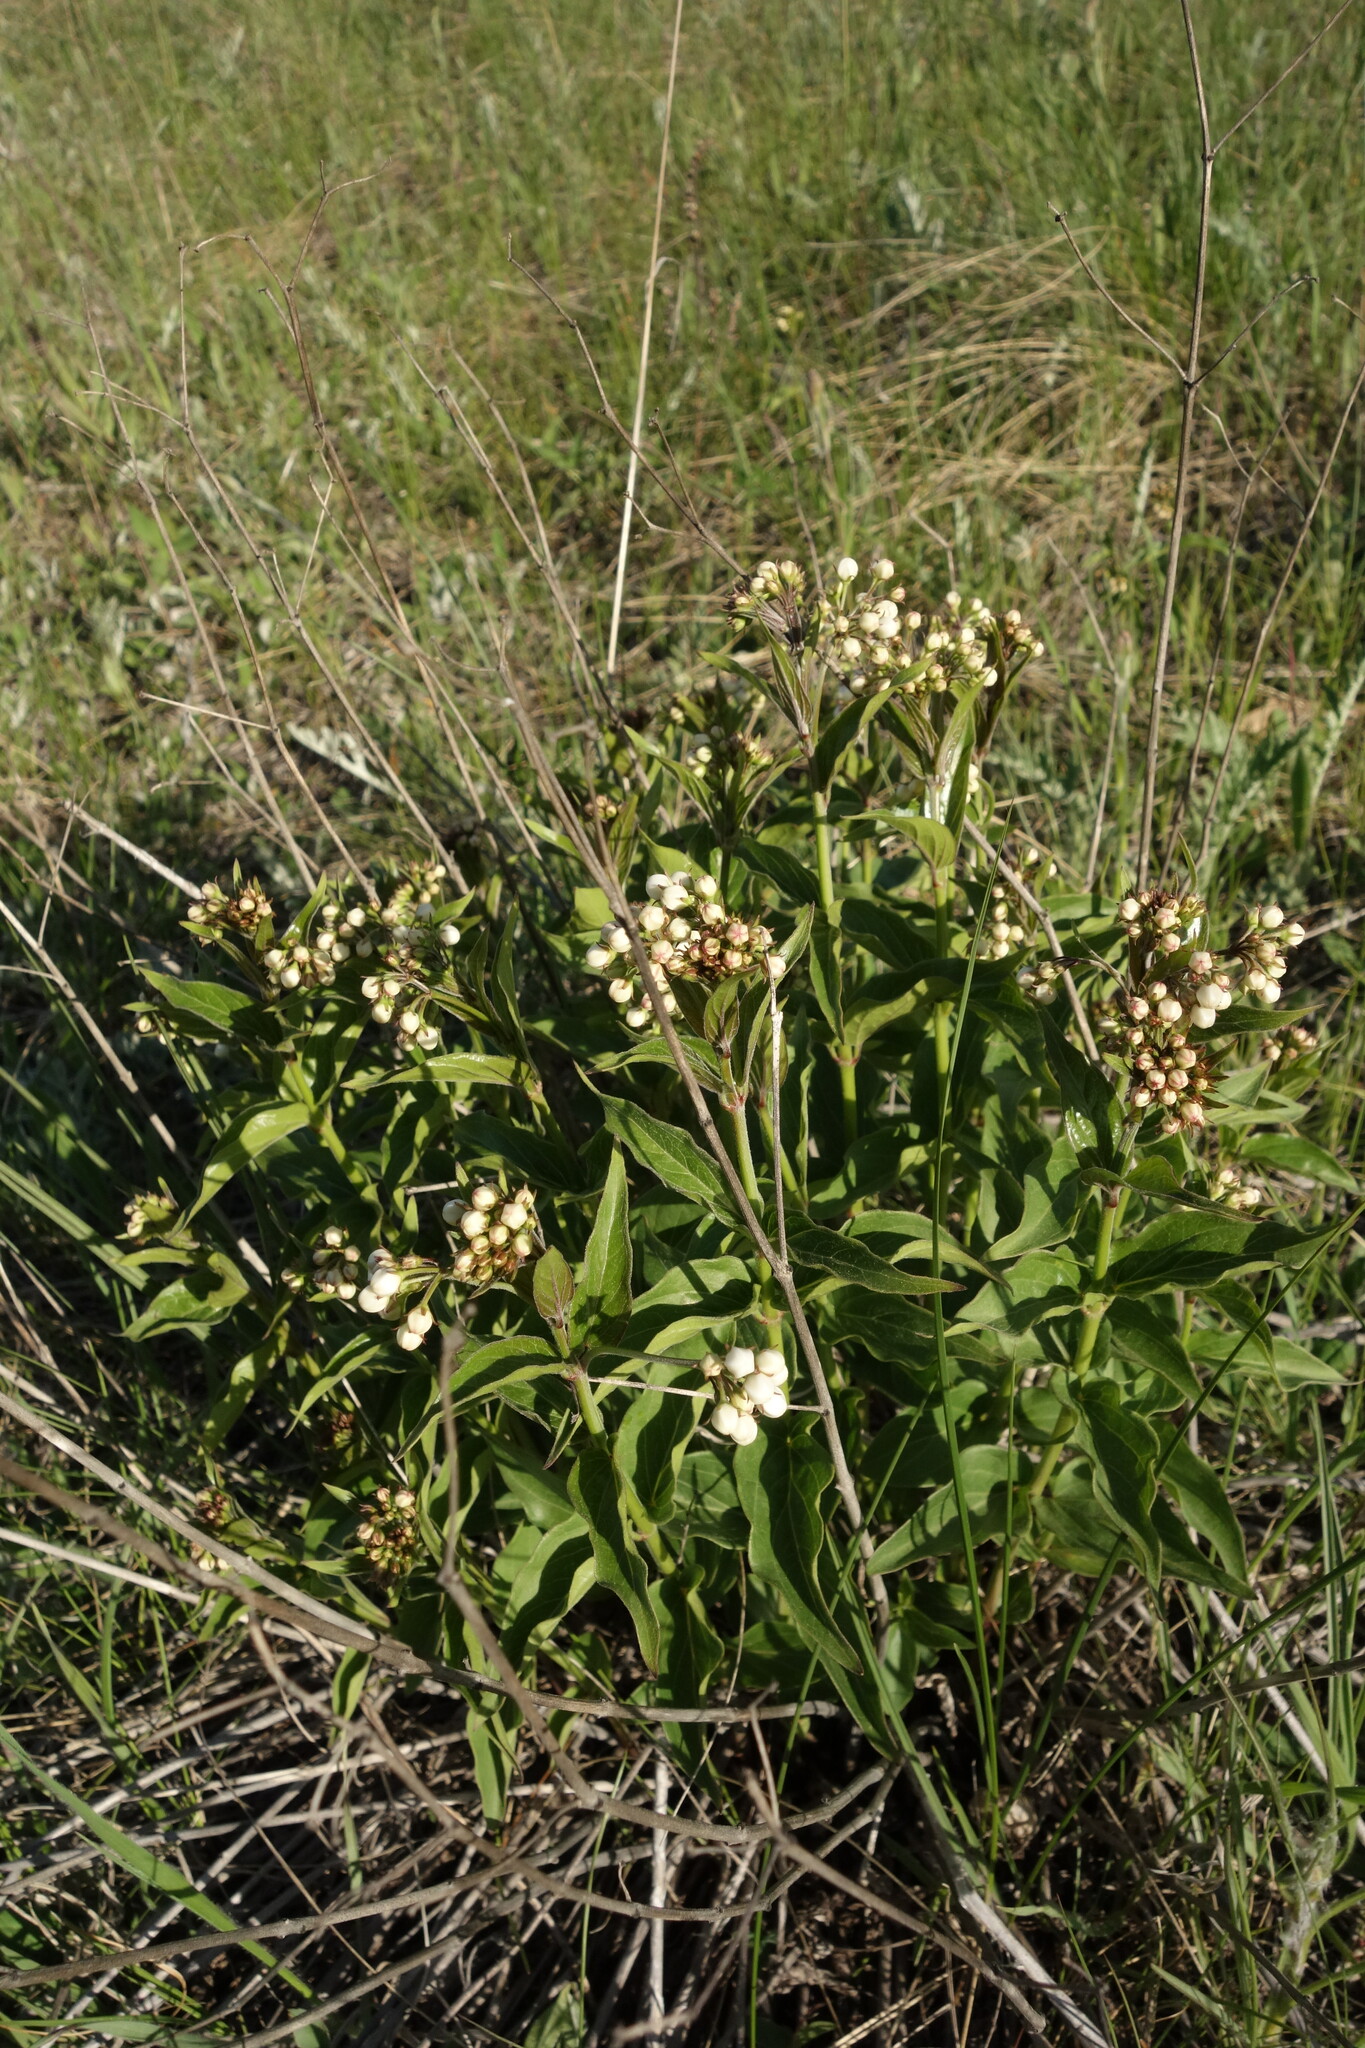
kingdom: Plantae
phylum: Tracheophyta
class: Magnoliopsida
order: Gentianales
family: Apocynaceae
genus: Vincetoxicum
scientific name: Vincetoxicum hirundinaria
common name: White swallowwort
